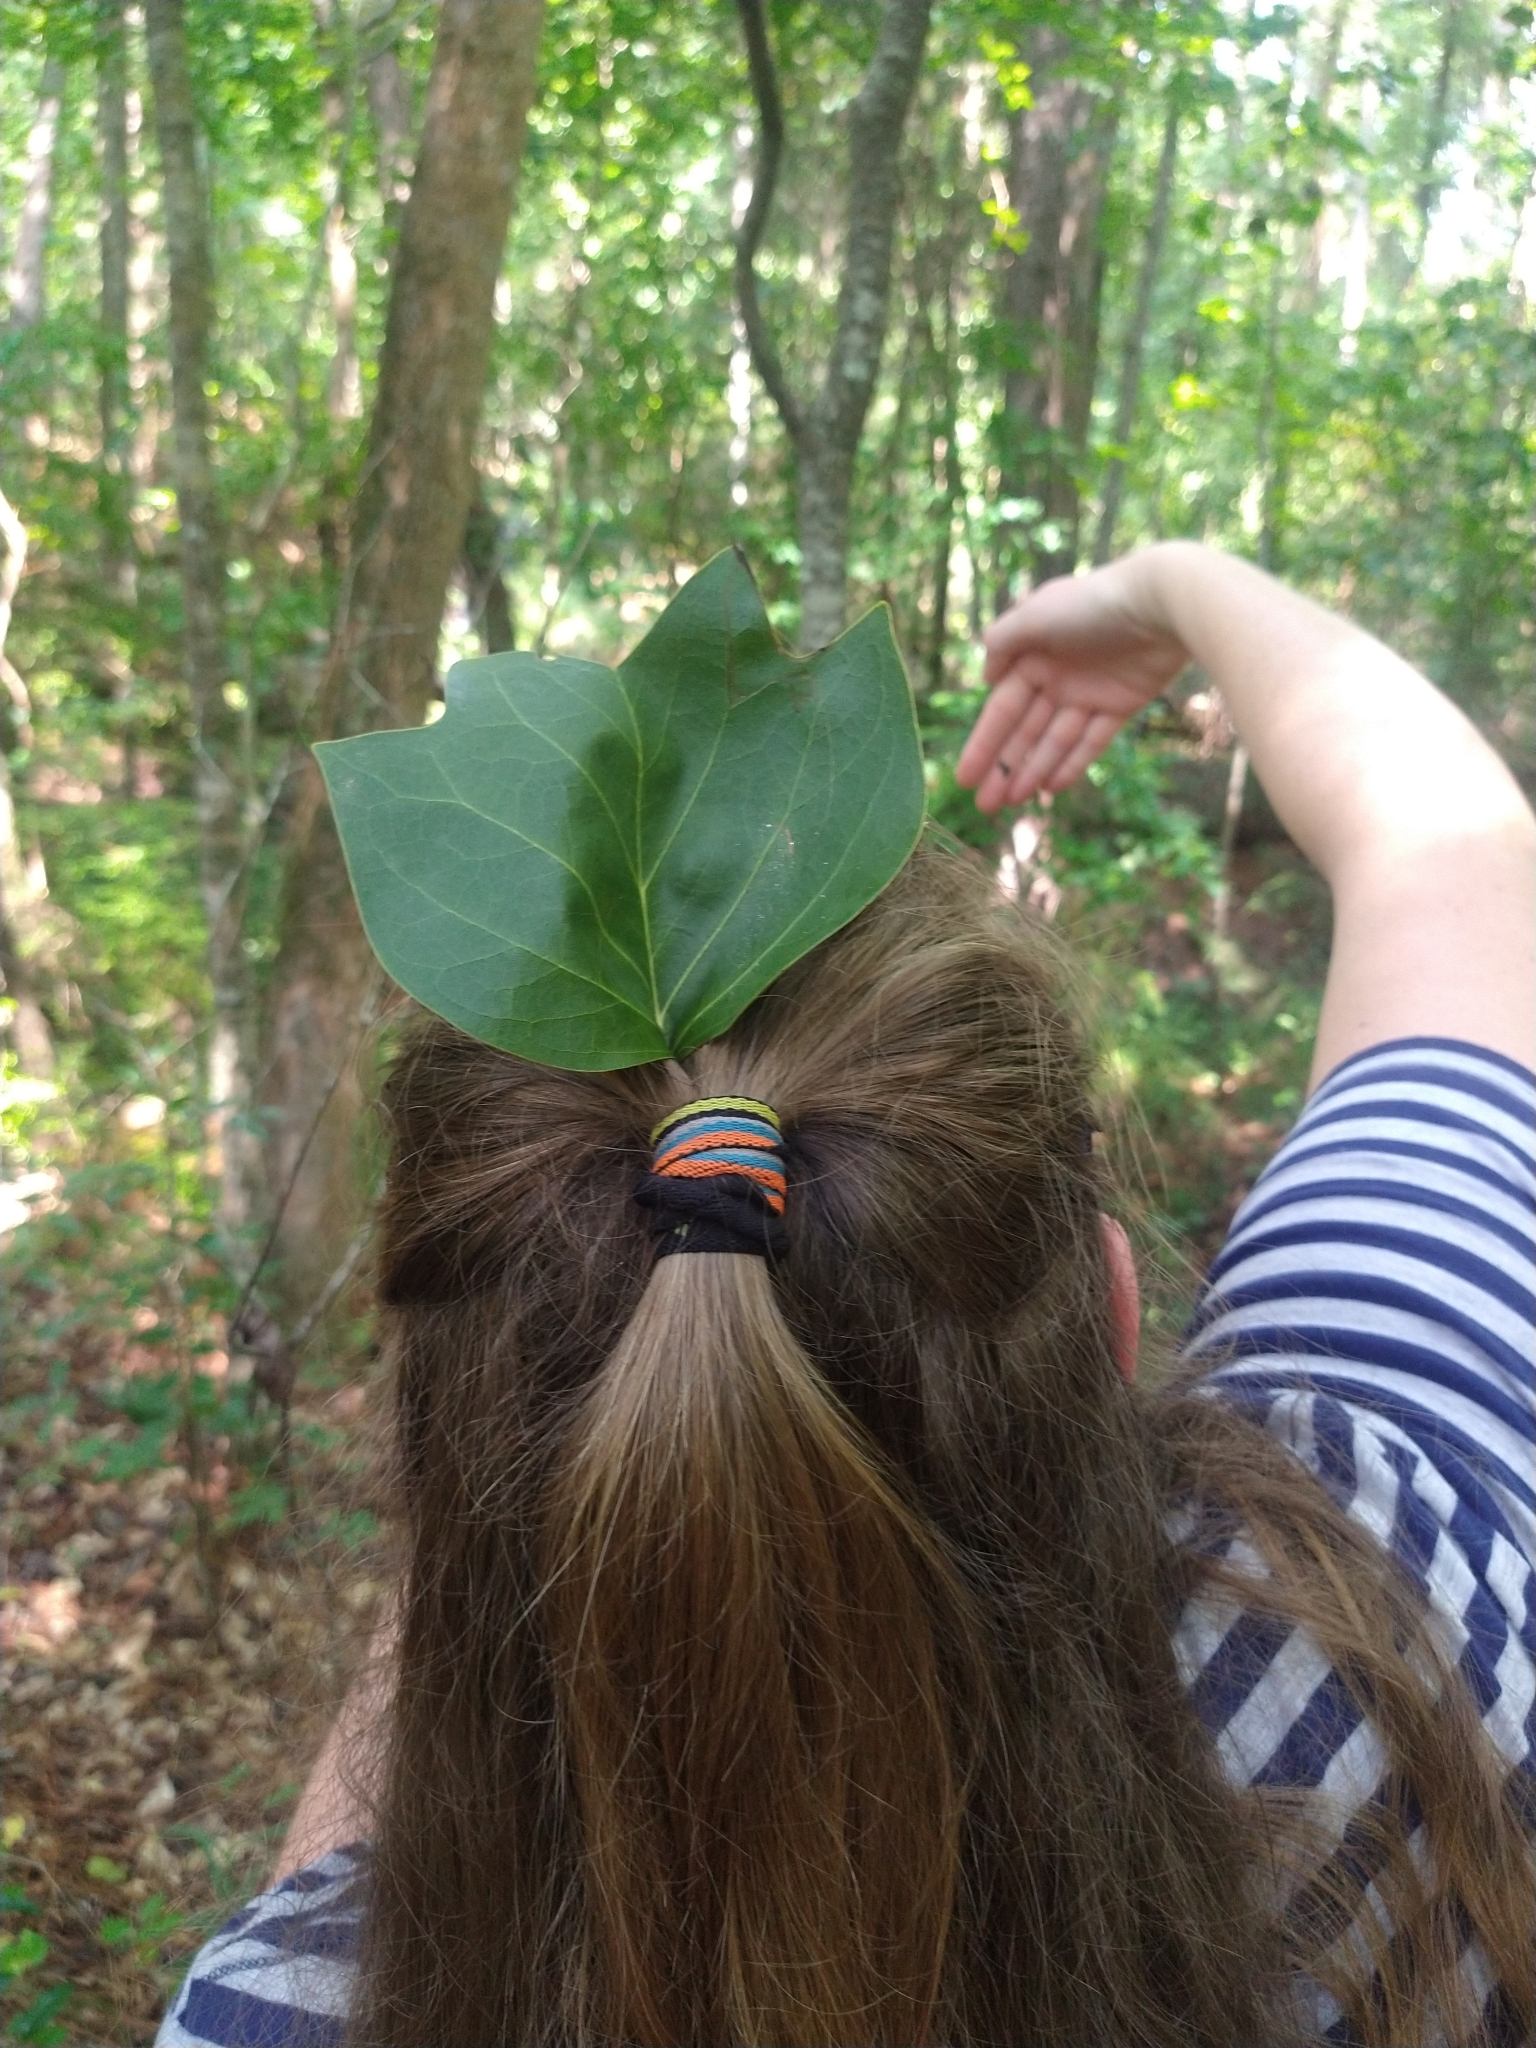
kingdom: Plantae
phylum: Tracheophyta
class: Magnoliopsida
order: Magnoliales
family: Magnoliaceae
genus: Liriodendron
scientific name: Liriodendron tulipifera
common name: Tulip tree
